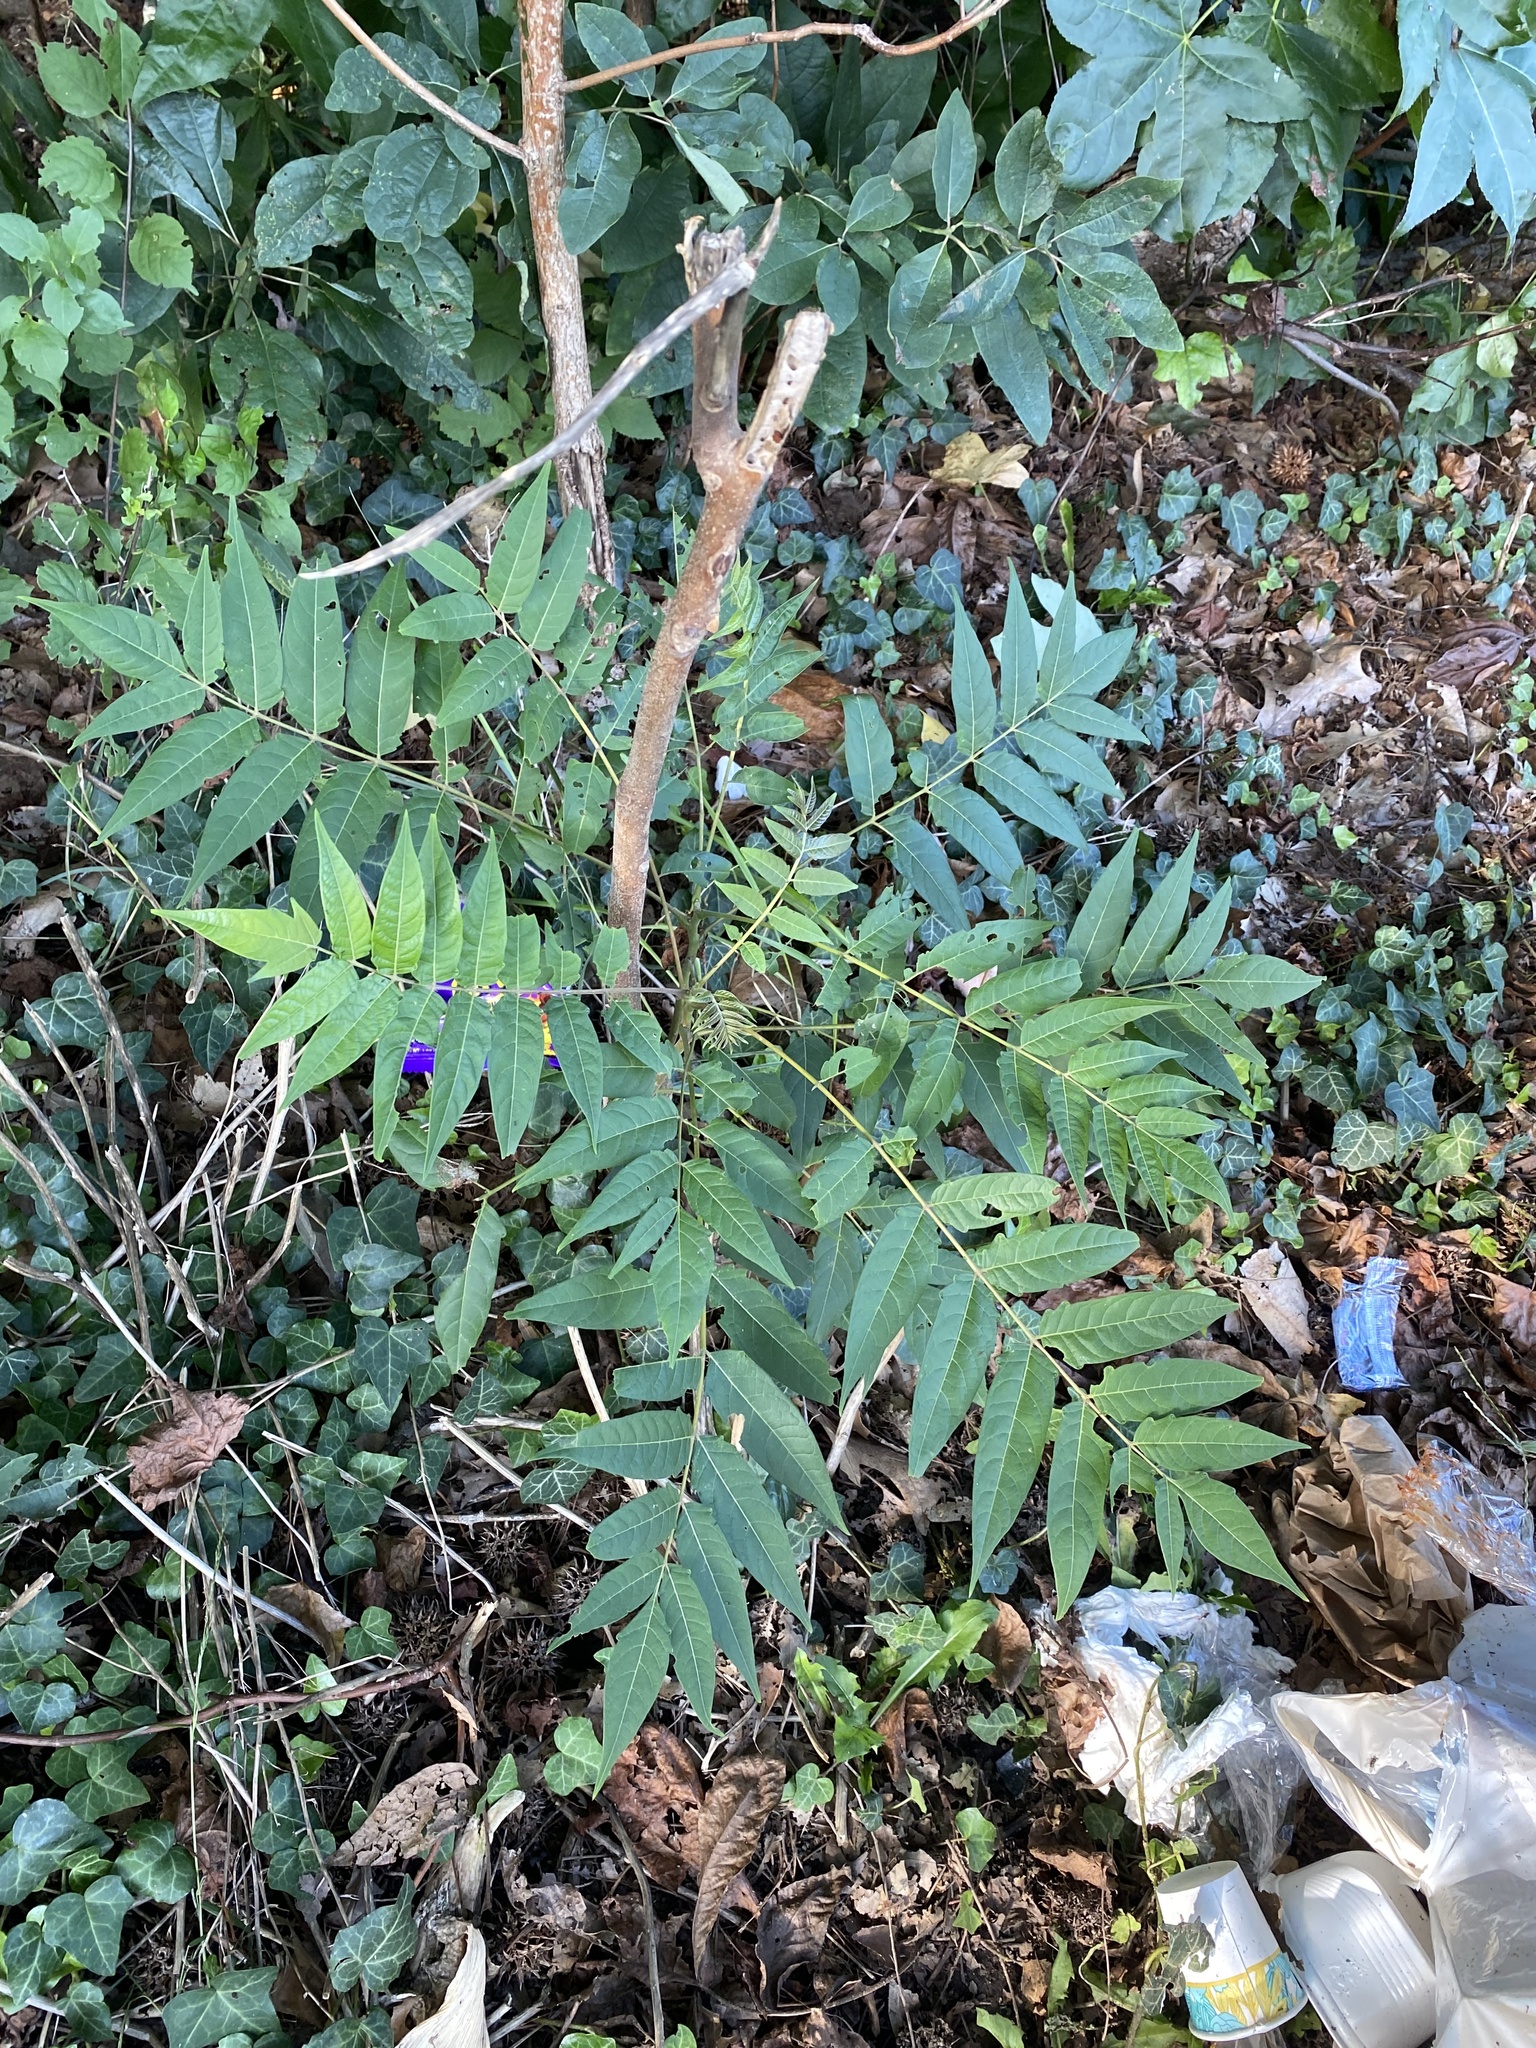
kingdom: Plantae
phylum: Tracheophyta
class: Magnoliopsida
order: Sapindales
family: Simaroubaceae
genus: Ailanthus
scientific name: Ailanthus altissima
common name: Tree-of-heaven
